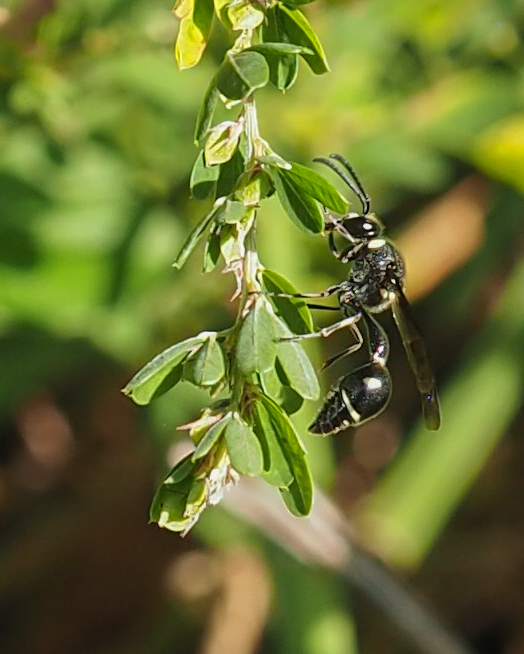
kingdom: Animalia
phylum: Arthropoda
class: Insecta
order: Hymenoptera
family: Vespidae
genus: Eumenes
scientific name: Eumenes fraternus
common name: Fraternal potter wasp
